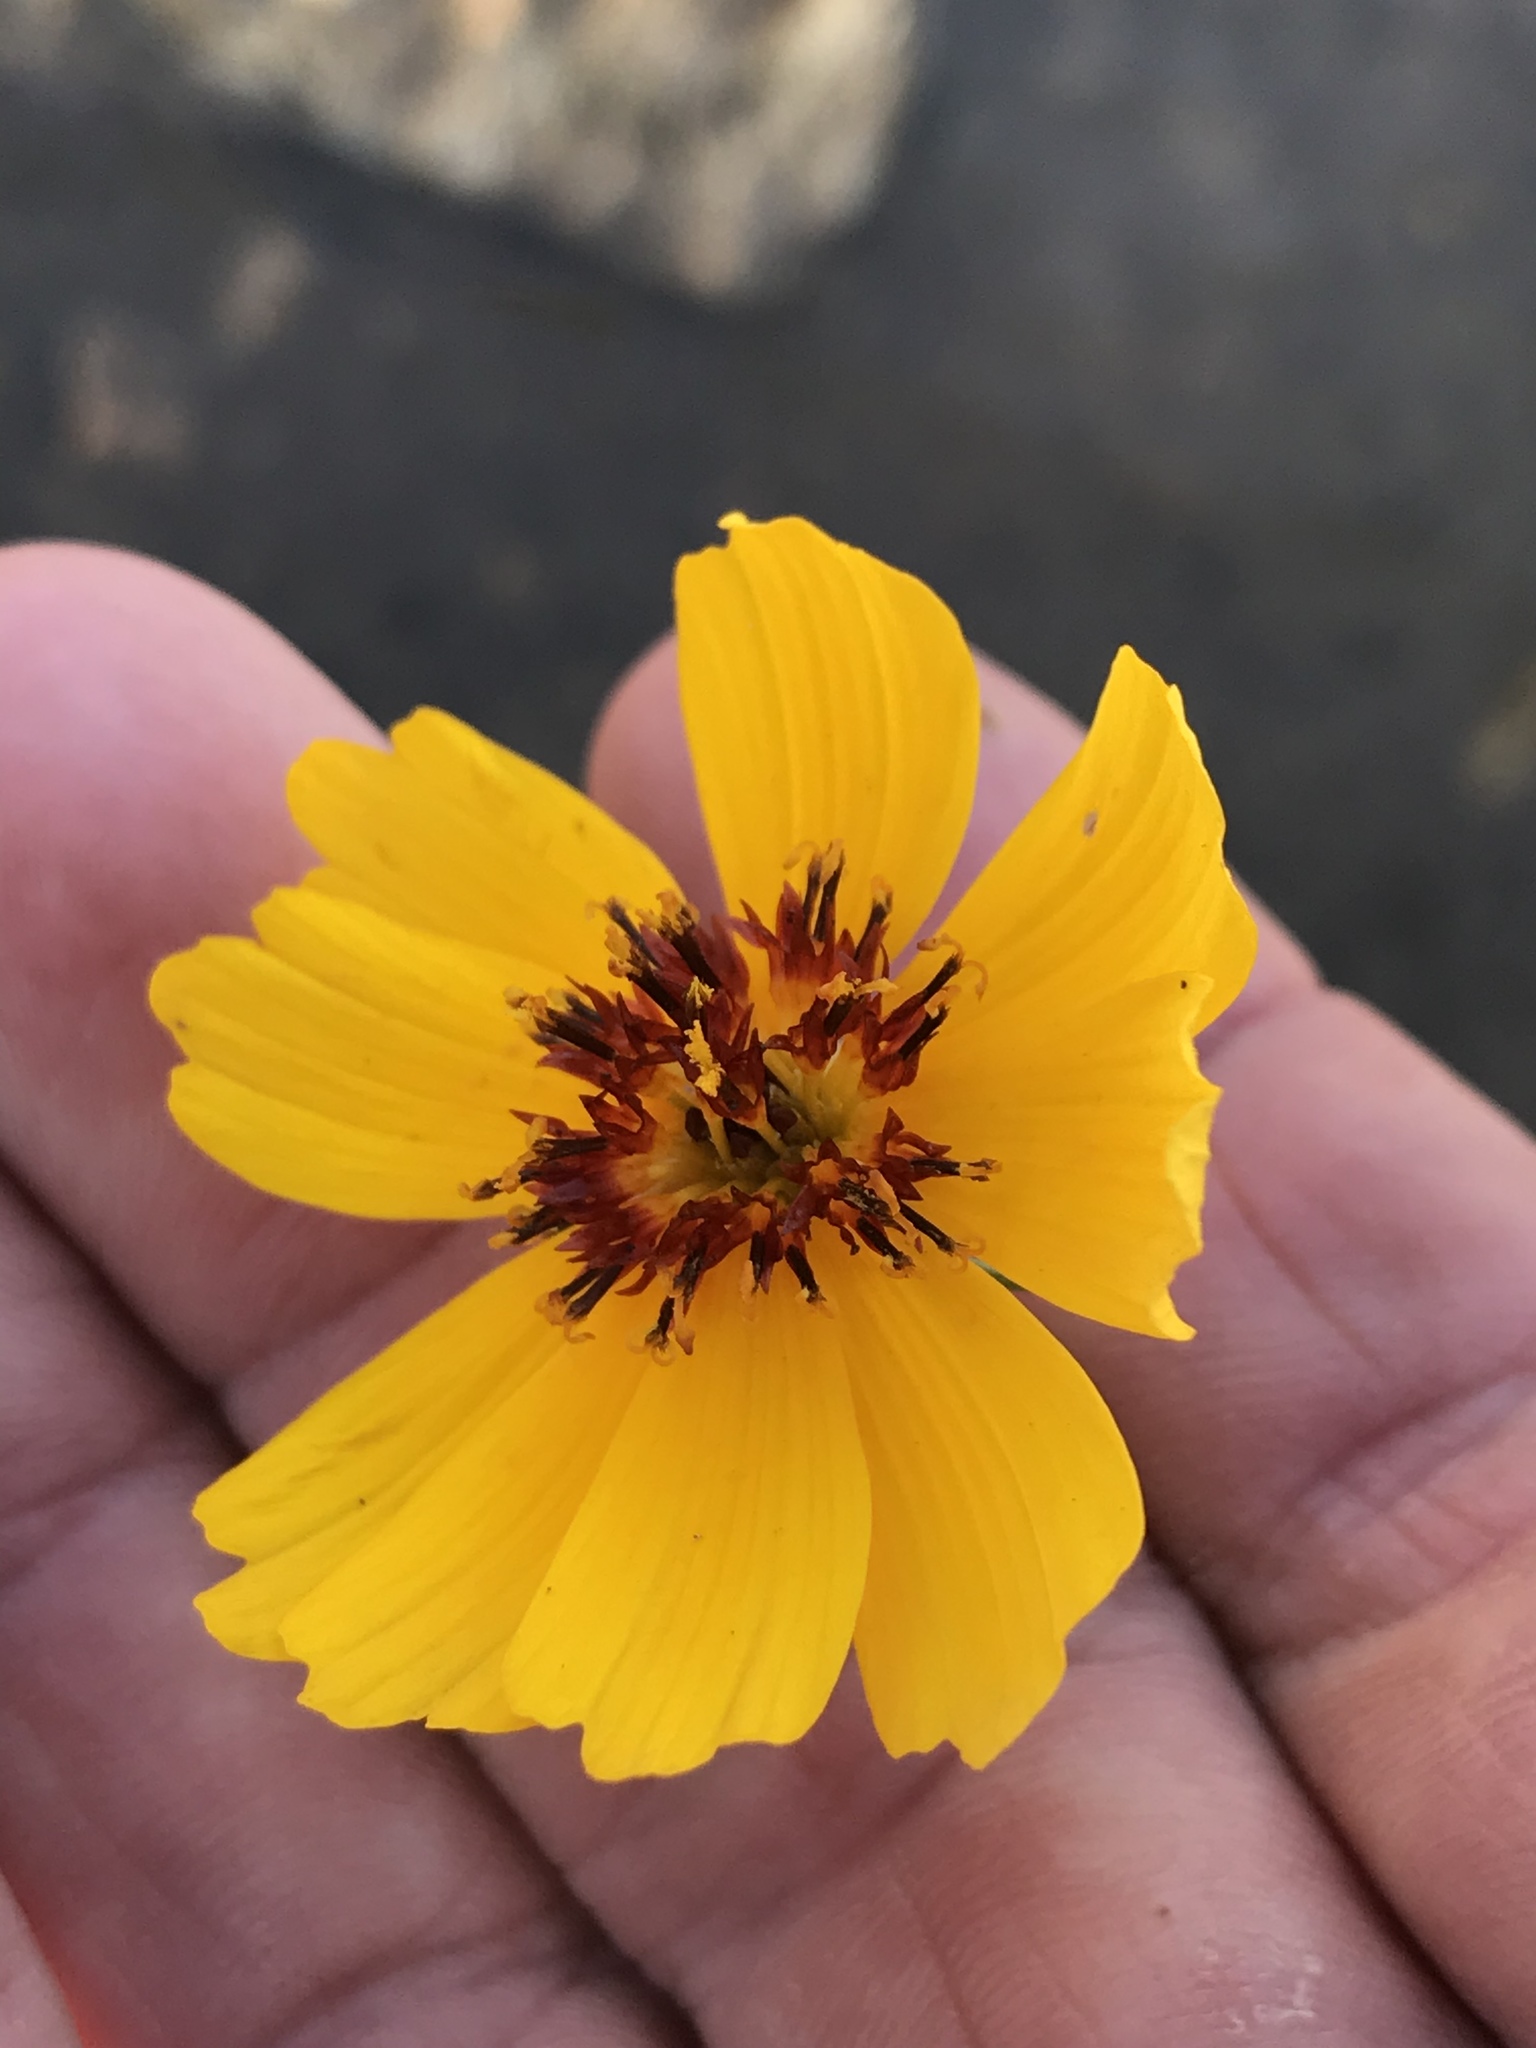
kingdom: Plantae
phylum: Tracheophyta
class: Magnoliopsida
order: Asterales
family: Asteraceae
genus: Thelesperma
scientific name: Thelesperma filifolium
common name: Stiff greenthread
